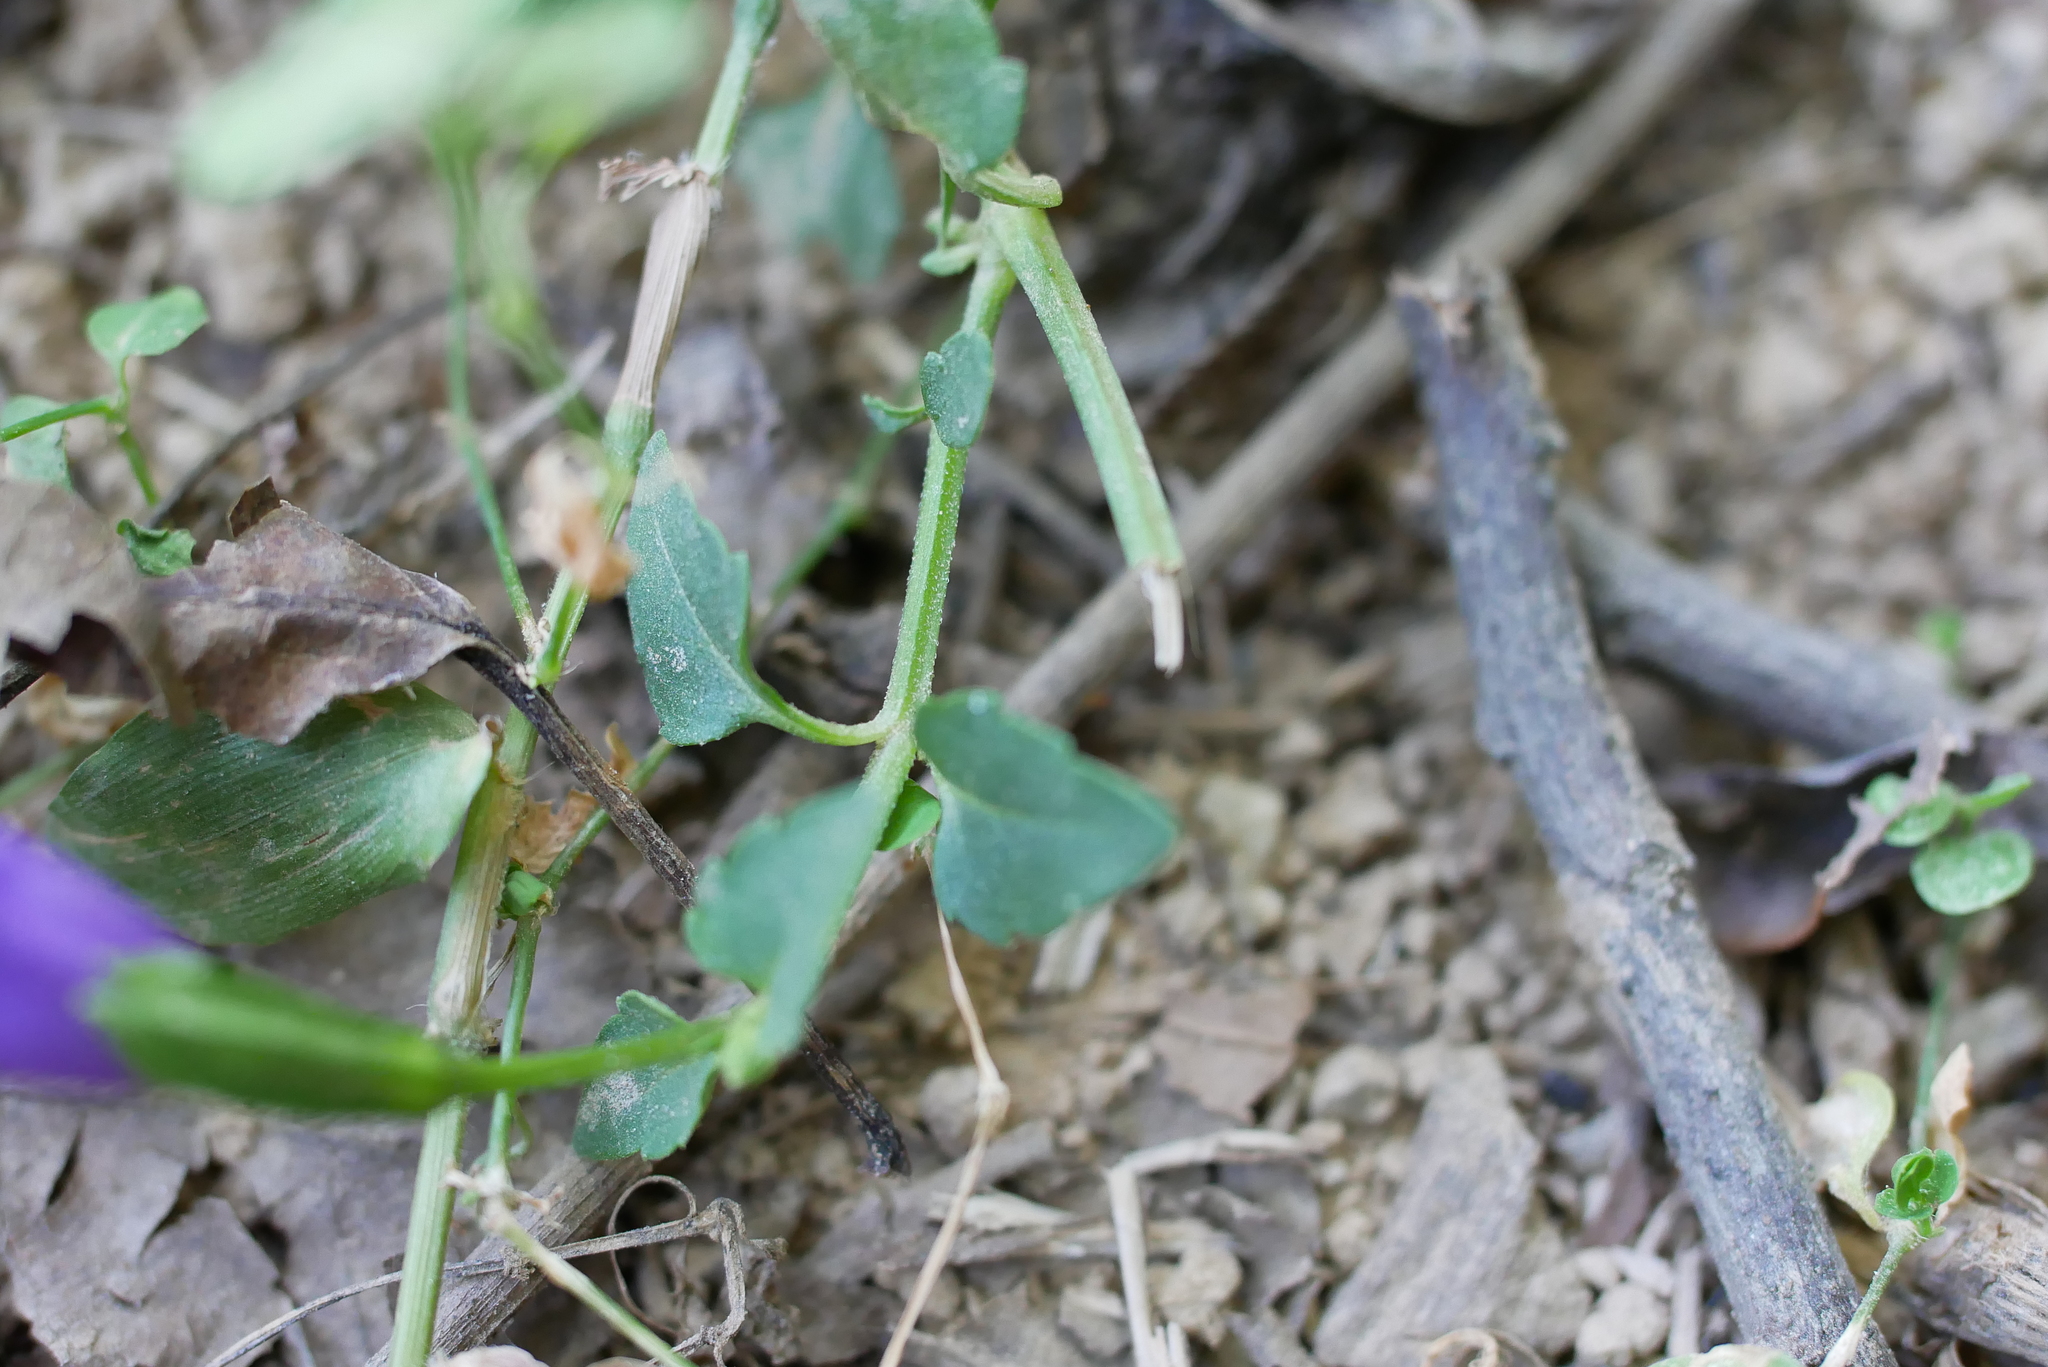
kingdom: Plantae
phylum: Tracheophyta
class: Magnoliopsida
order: Lamiales
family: Linderniaceae
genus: Torenia
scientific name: Torenia concolor
